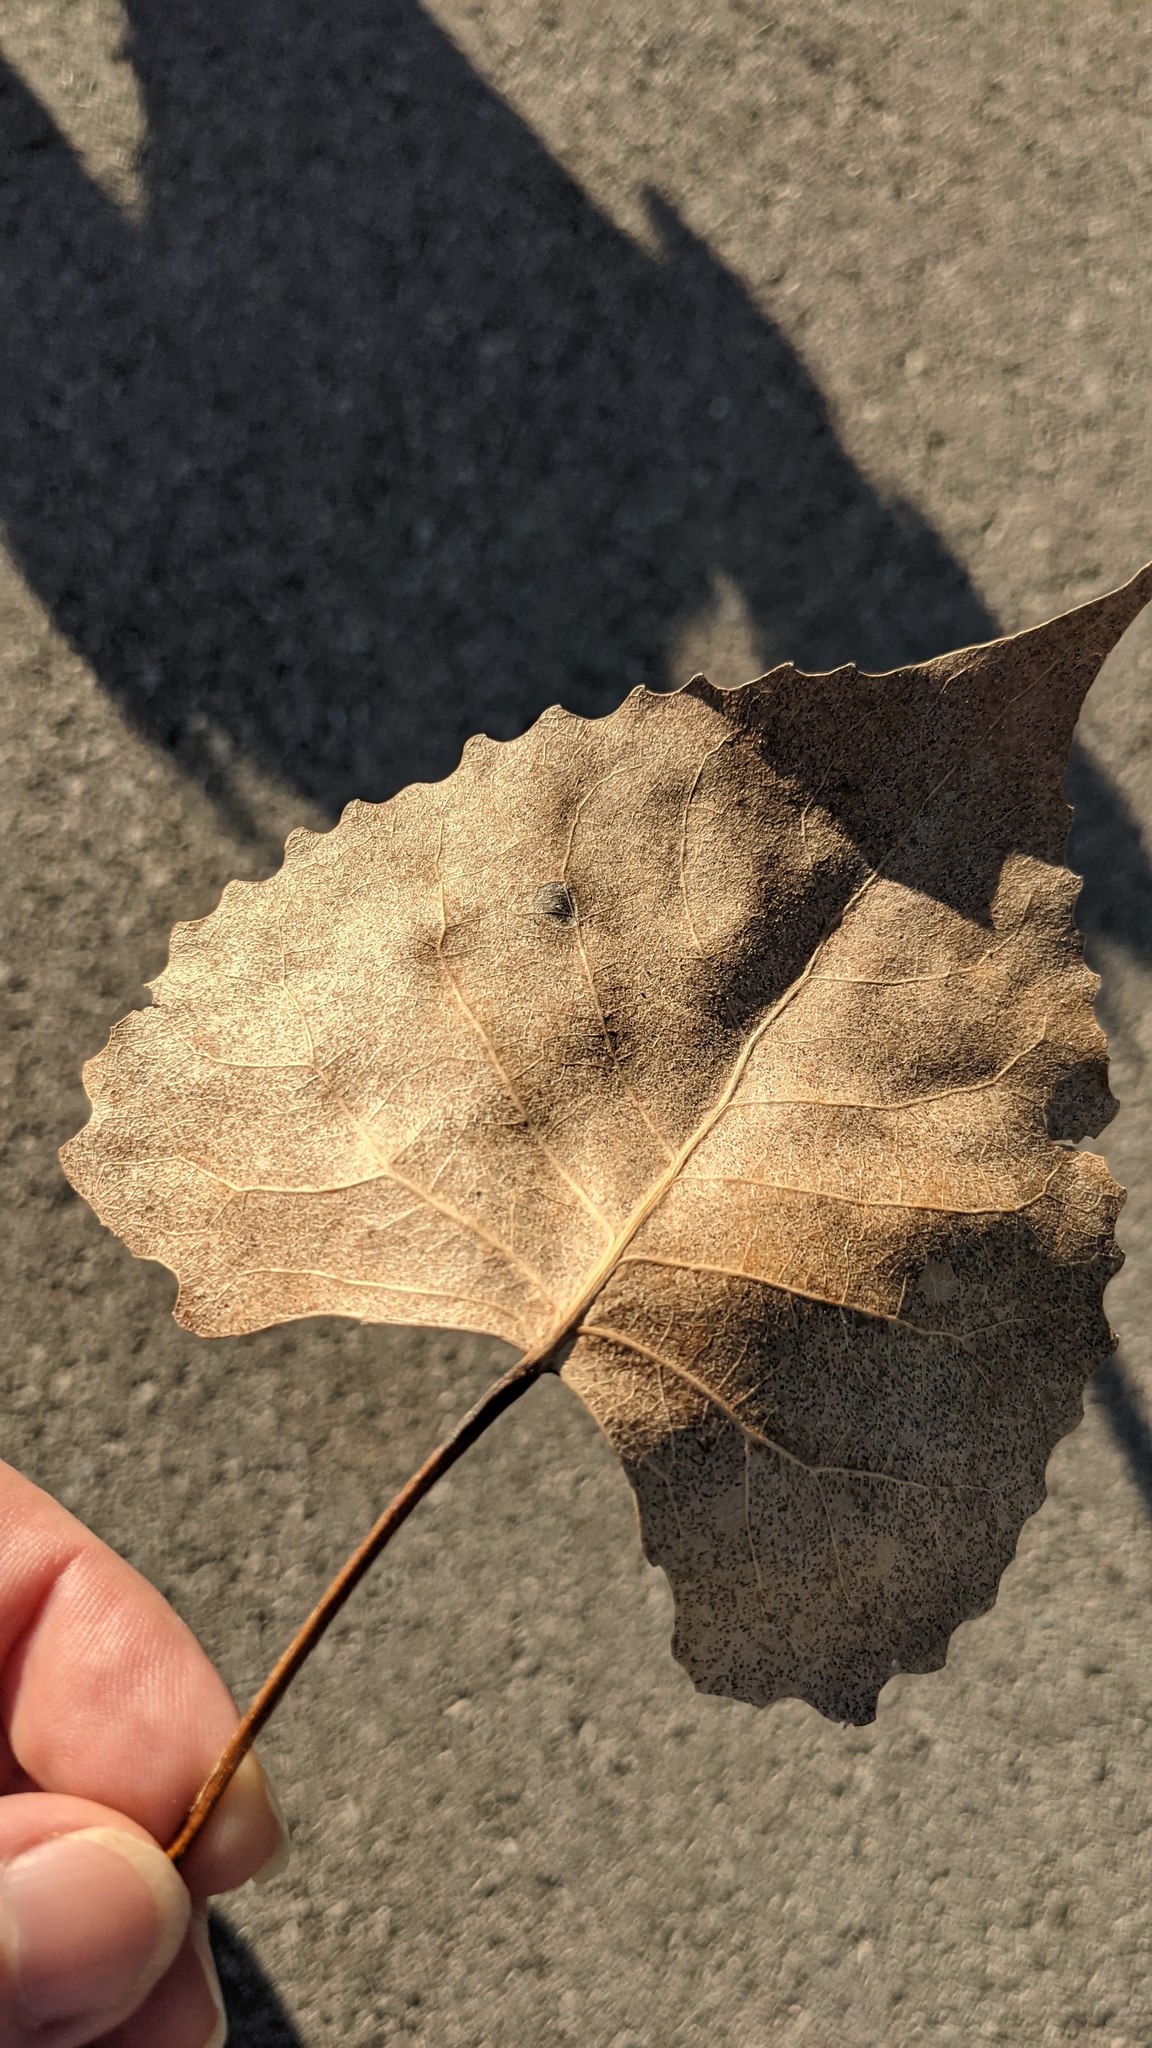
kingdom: Plantae
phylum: Tracheophyta
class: Magnoliopsida
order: Malpighiales
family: Salicaceae
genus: Populus
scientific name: Populus deltoides
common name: Eastern cottonwood
